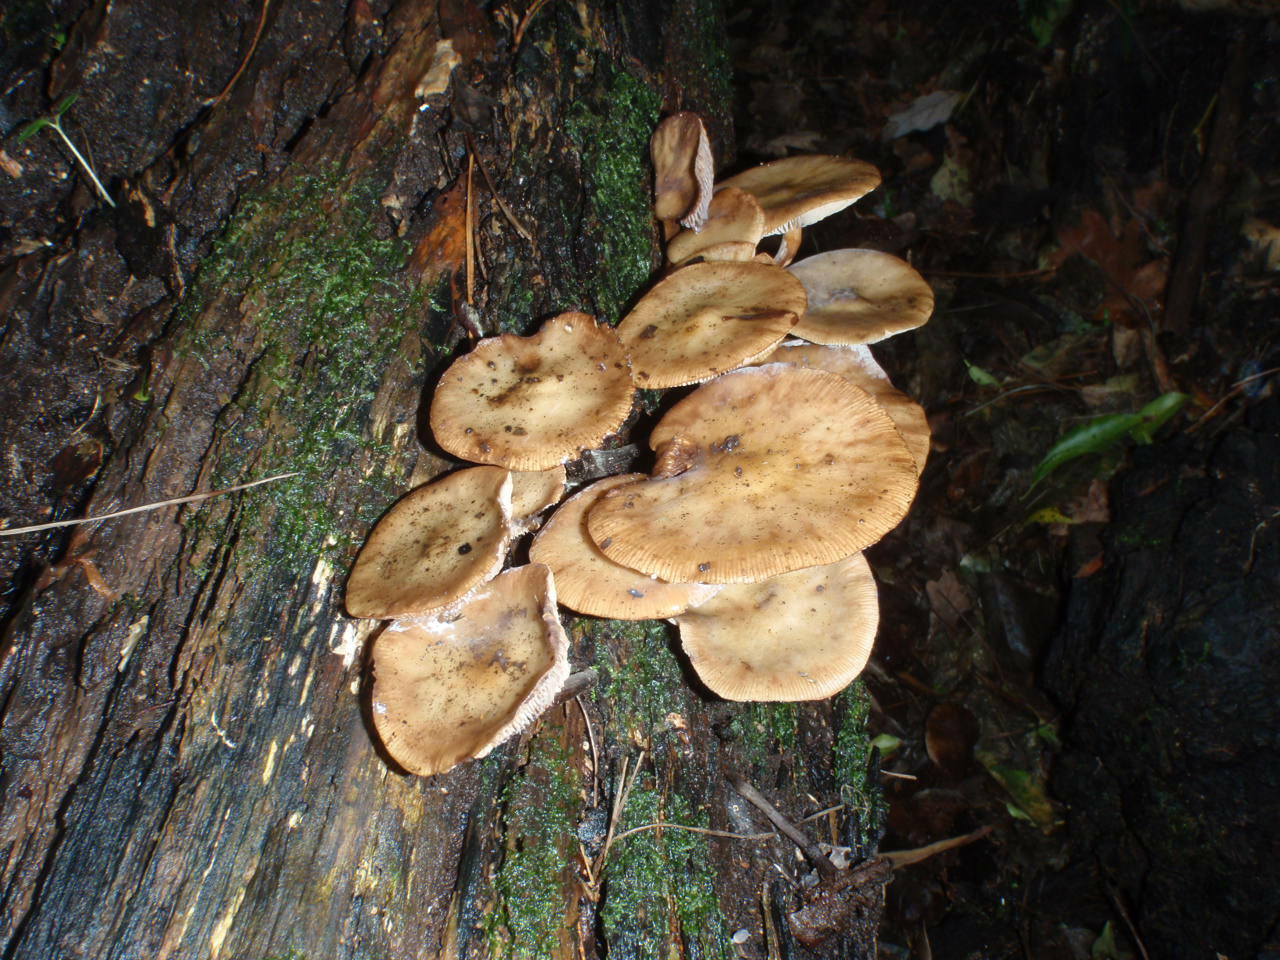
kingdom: Fungi
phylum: Basidiomycota
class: Agaricomycetes
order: Agaricales
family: Physalacriaceae
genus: Armillaria
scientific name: Armillaria novae-zelandiae
